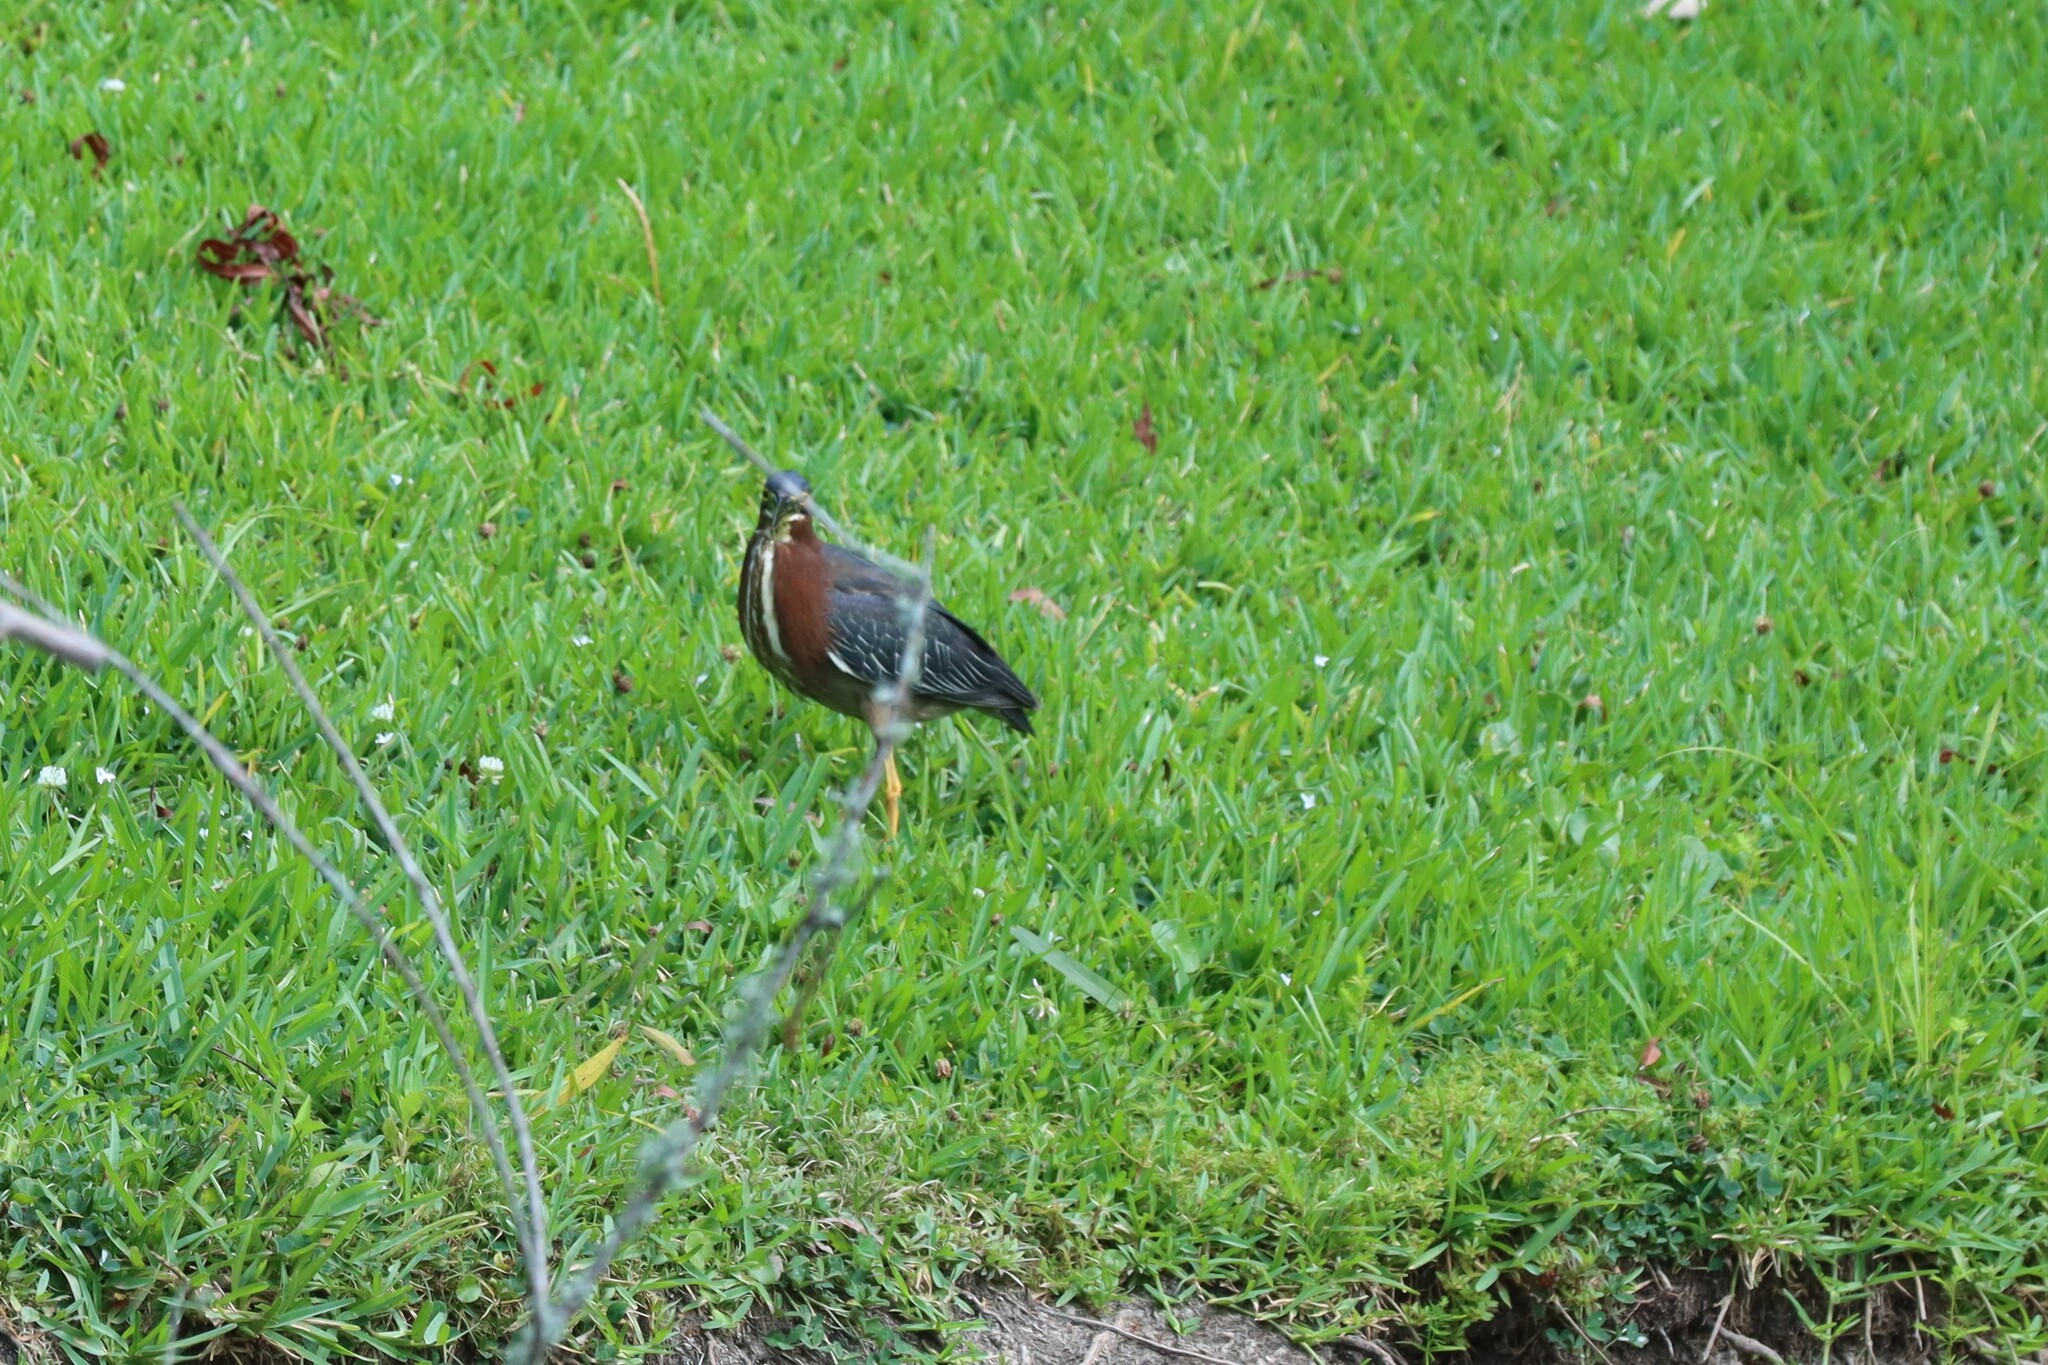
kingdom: Animalia
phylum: Chordata
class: Aves
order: Pelecaniformes
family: Ardeidae
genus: Butorides
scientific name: Butorides virescens
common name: Green heron
